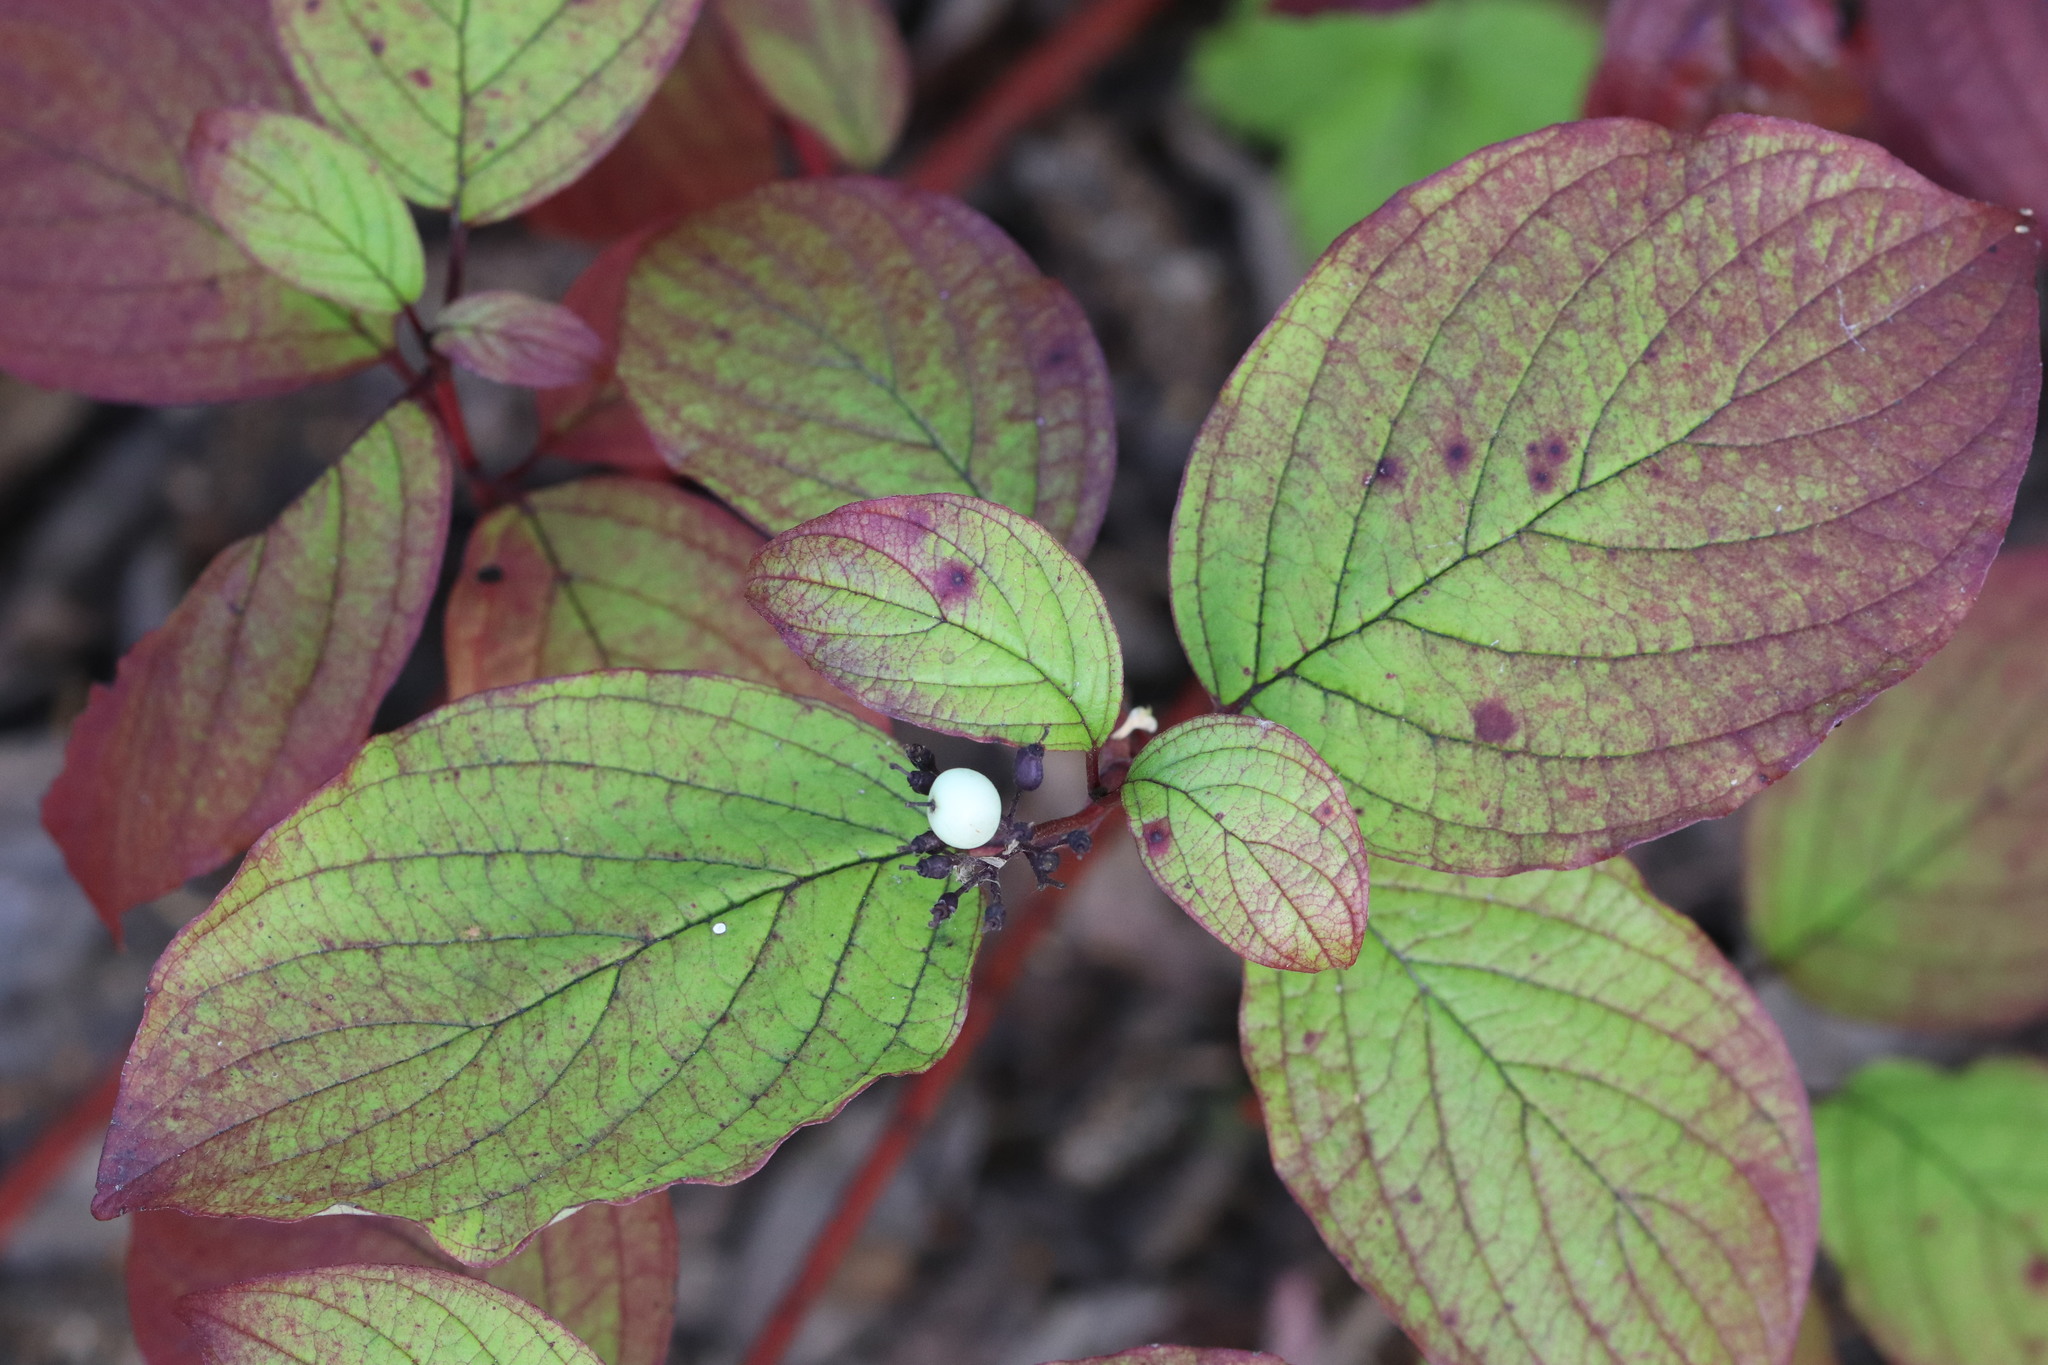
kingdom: Plantae
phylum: Tracheophyta
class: Magnoliopsida
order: Cornales
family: Cornaceae
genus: Cornus
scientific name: Cornus alba
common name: White dogwood
